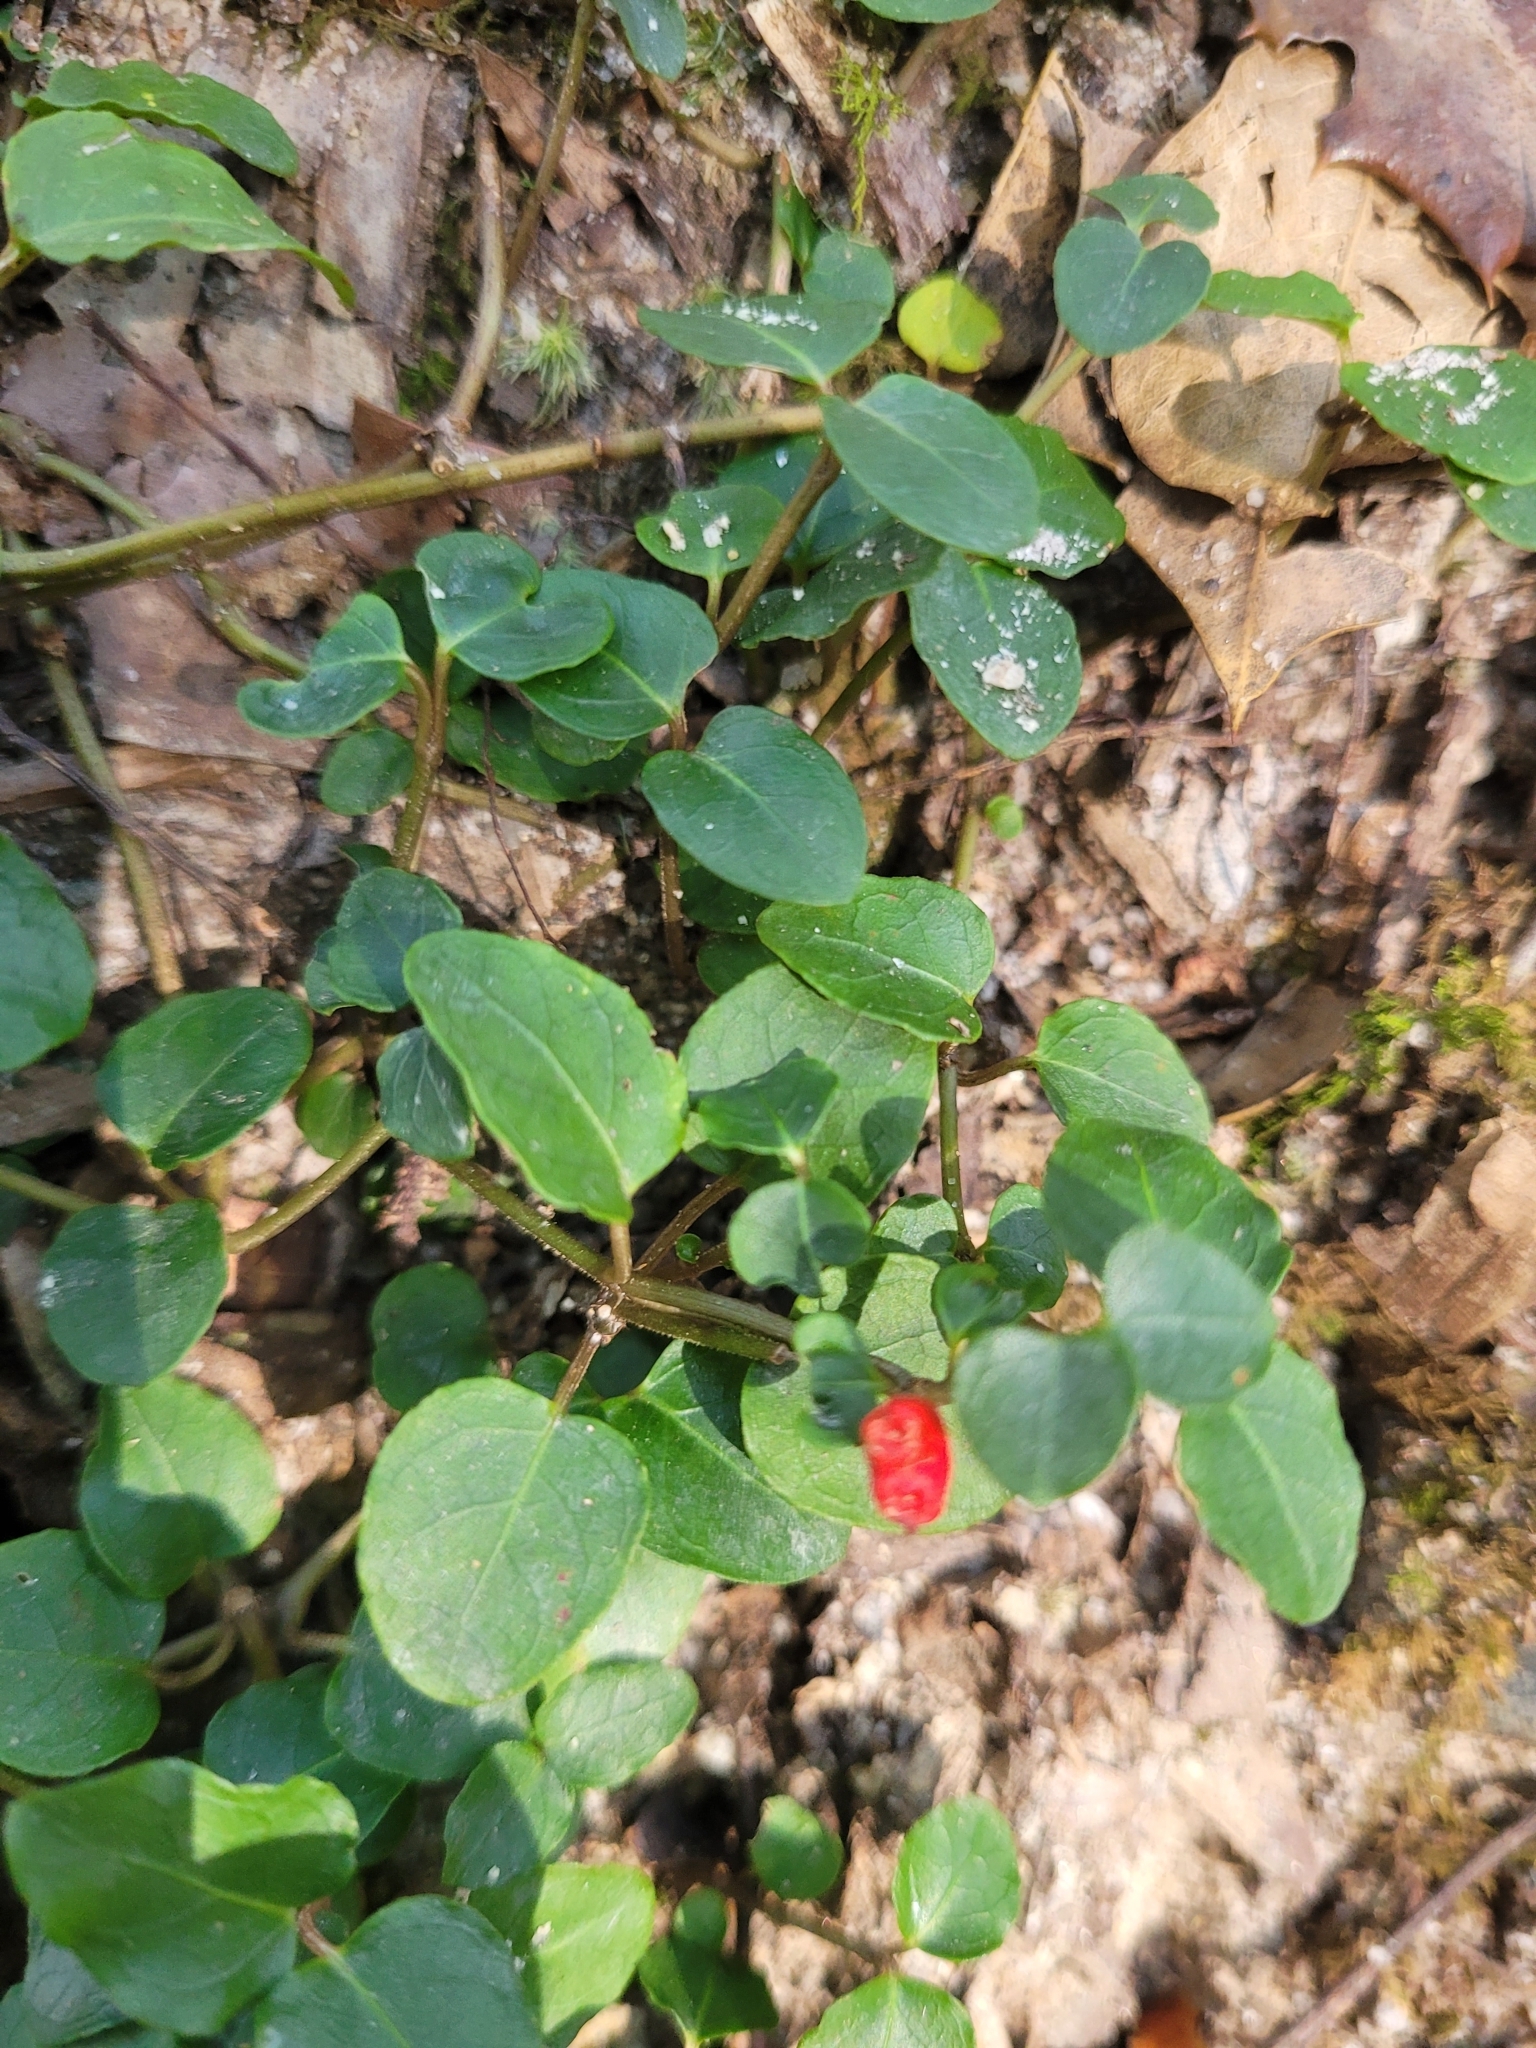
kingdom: Plantae
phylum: Tracheophyta
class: Magnoliopsida
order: Gentianales
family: Rubiaceae
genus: Mitchella
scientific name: Mitchella repens
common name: Partridge-berry
